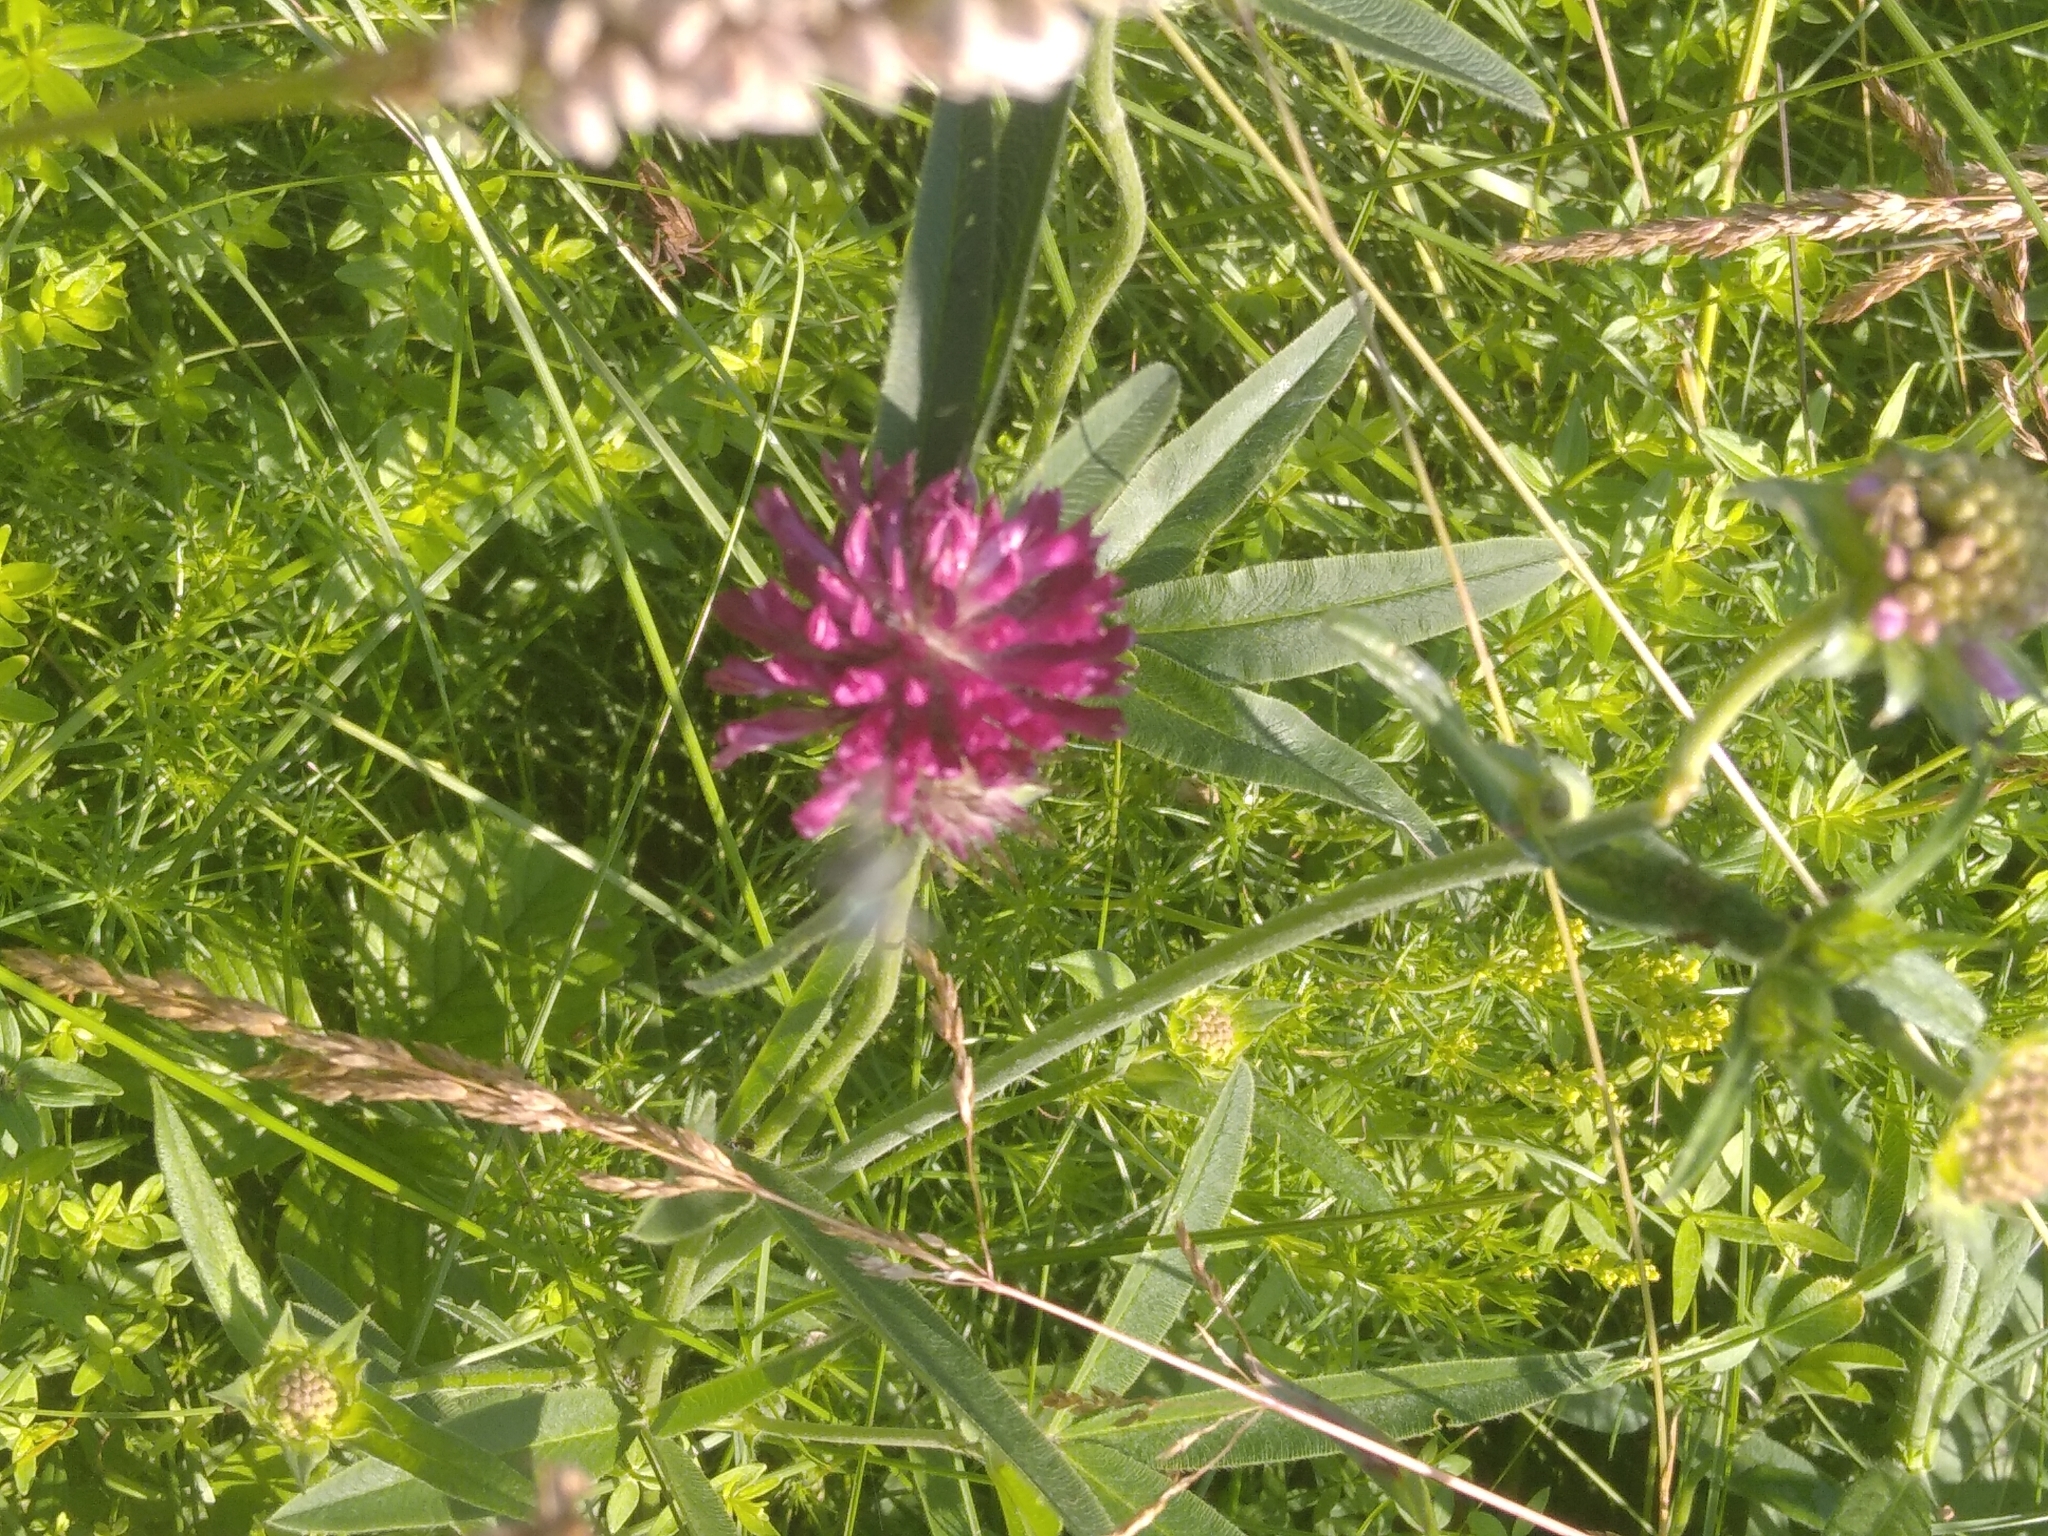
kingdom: Plantae
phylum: Tracheophyta
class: Magnoliopsida
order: Fabales
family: Fabaceae
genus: Trifolium
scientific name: Trifolium alpestre
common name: Owl-head clover
